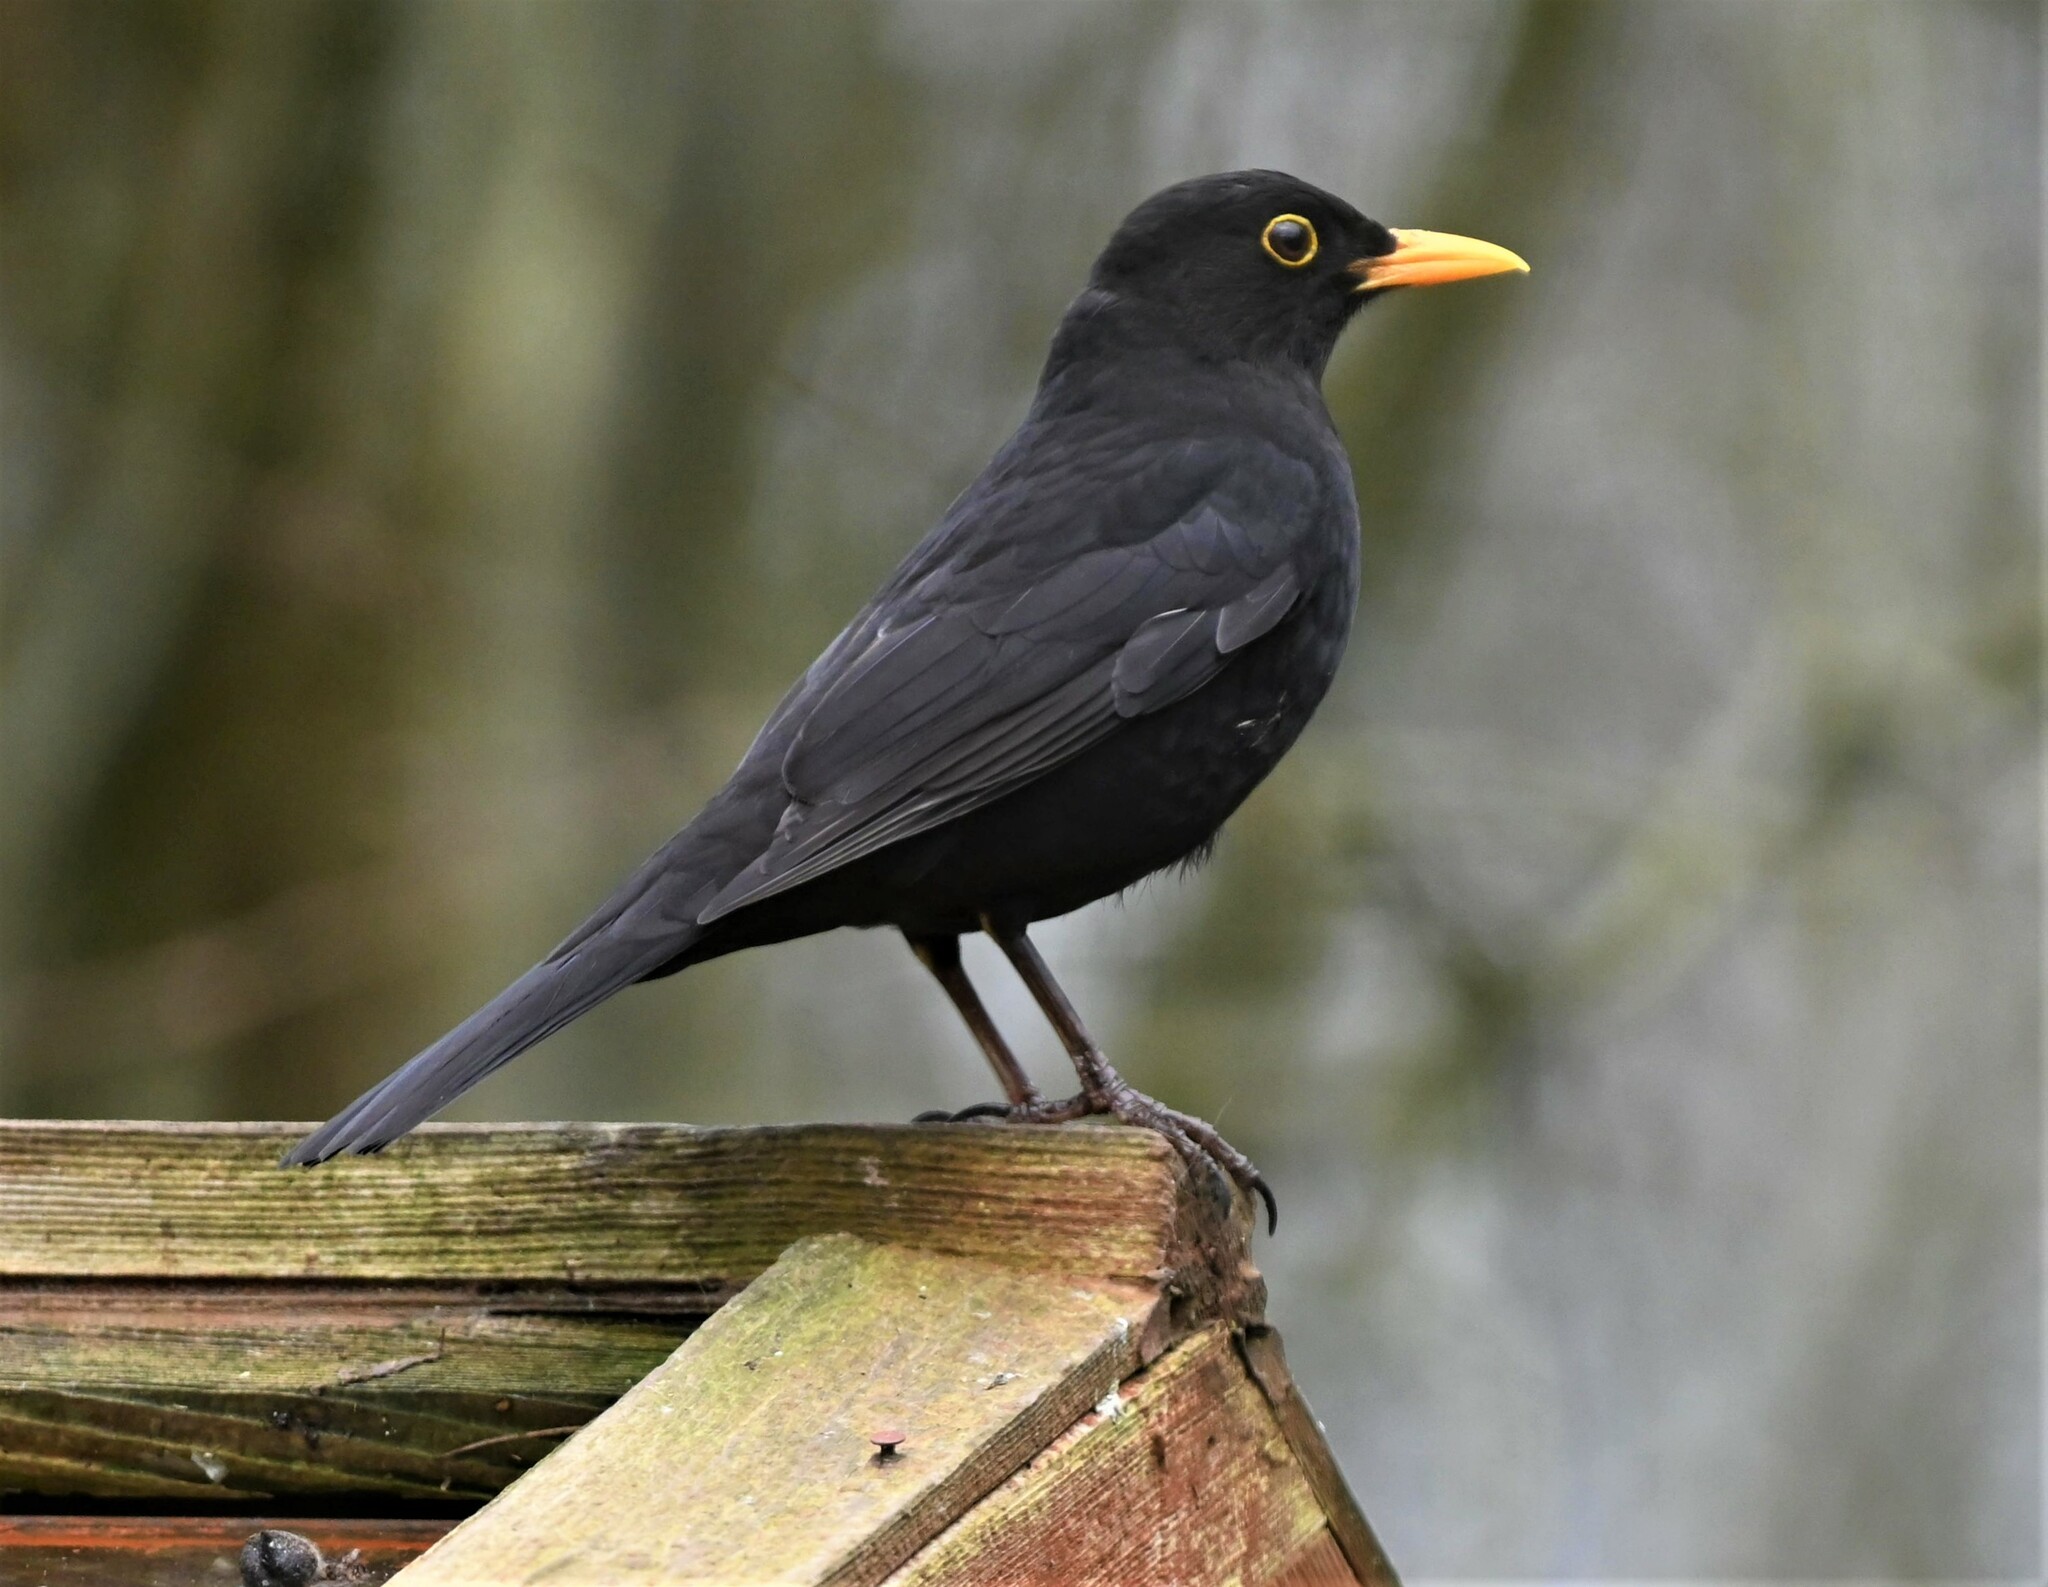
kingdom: Animalia
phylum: Chordata
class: Aves
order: Passeriformes
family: Turdidae
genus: Turdus
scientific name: Turdus merula
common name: Common blackbird
